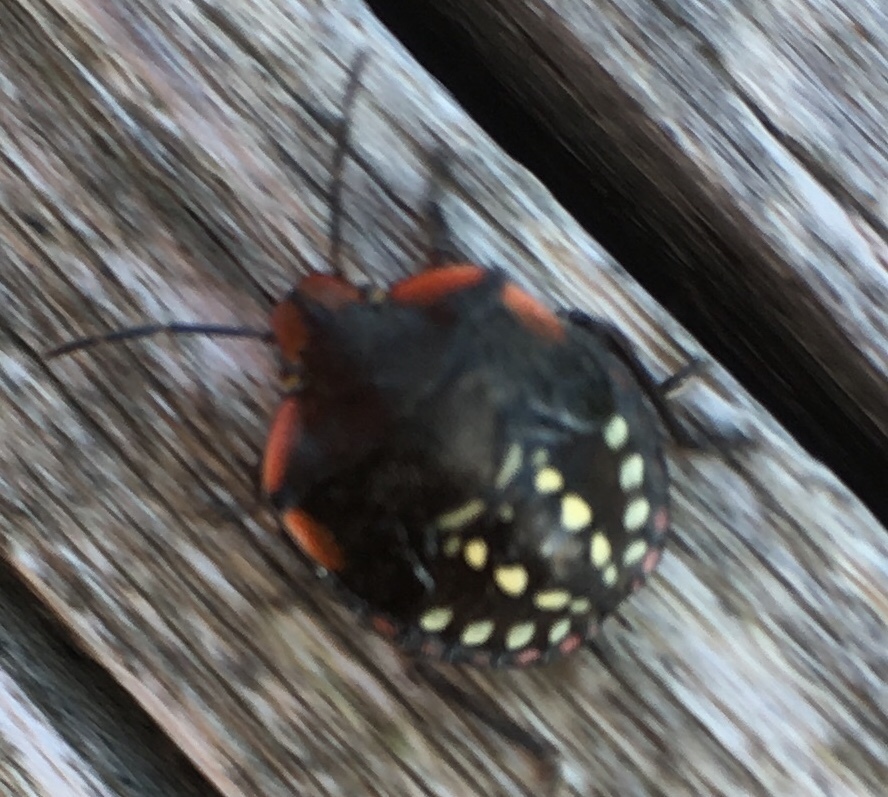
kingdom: Animalia
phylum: Arthropoda
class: Insecta
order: Hemiptera
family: Pentatomidae
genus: Nezara
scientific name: Nezara viridula
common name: Southern green stink bug
